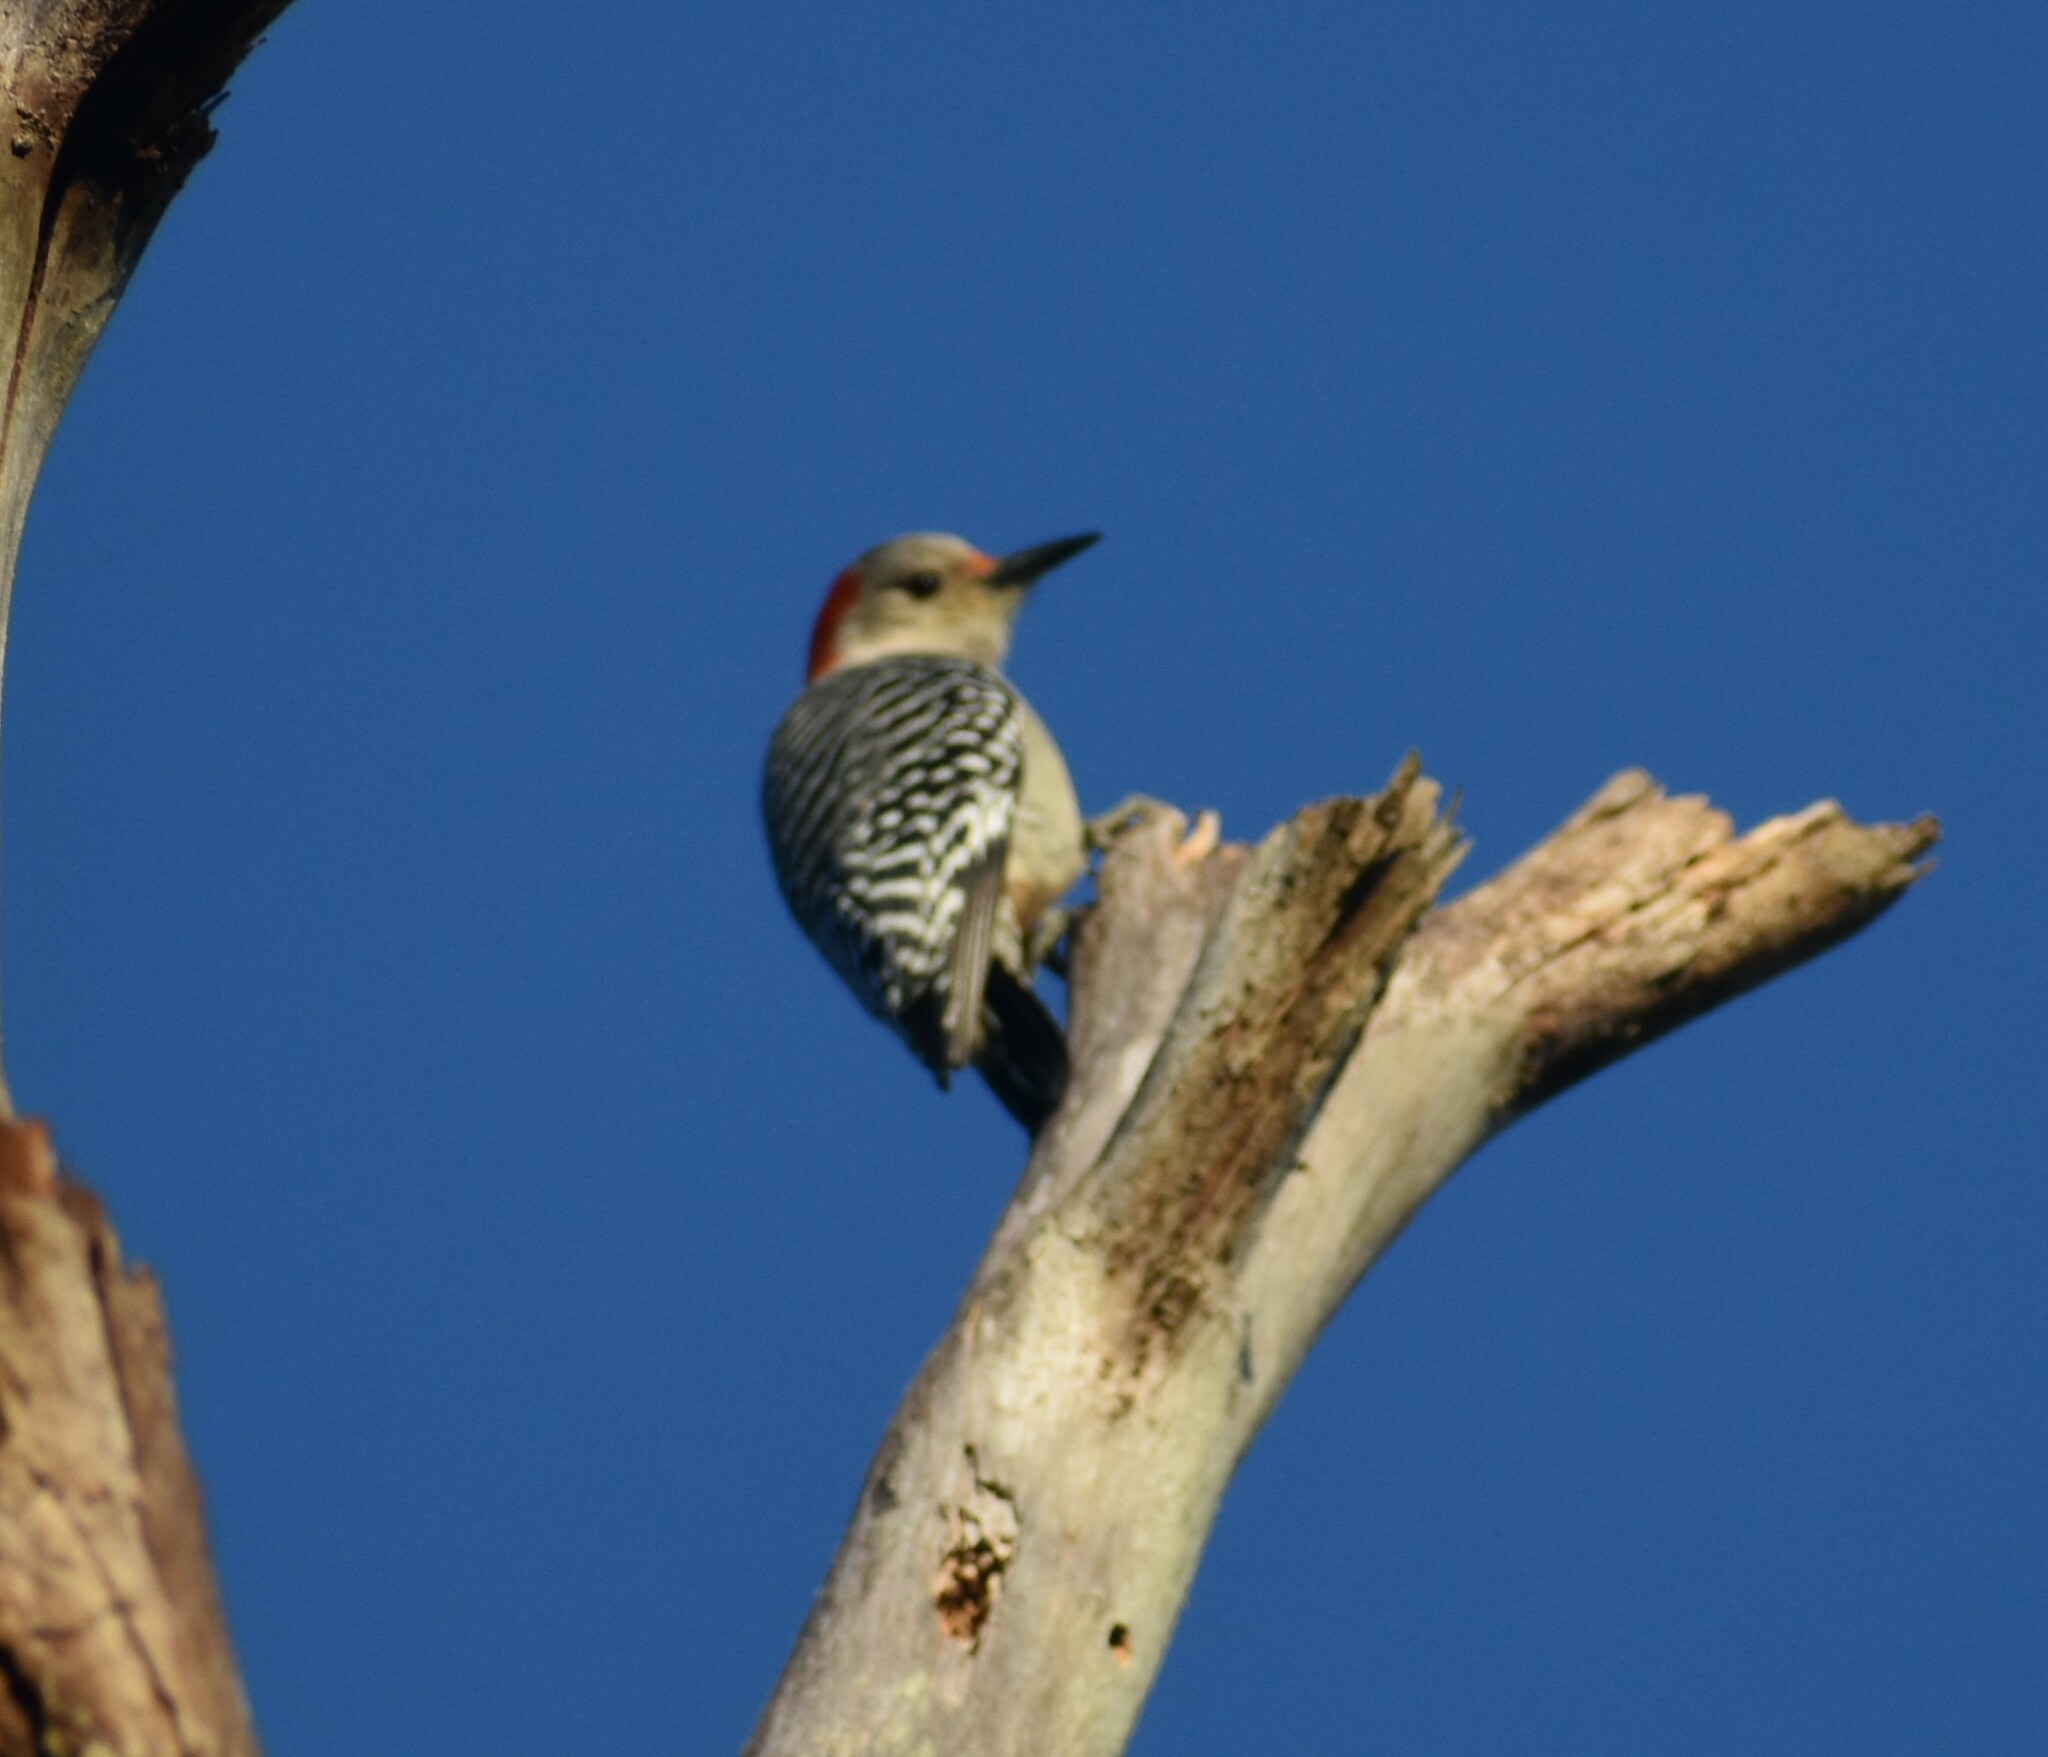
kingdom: Animalia
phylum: Chordata
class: Aves
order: Piciformes
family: Picidae
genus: Melanerpes
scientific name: Melanerpes carolinus
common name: Red-bellied woodpecker
